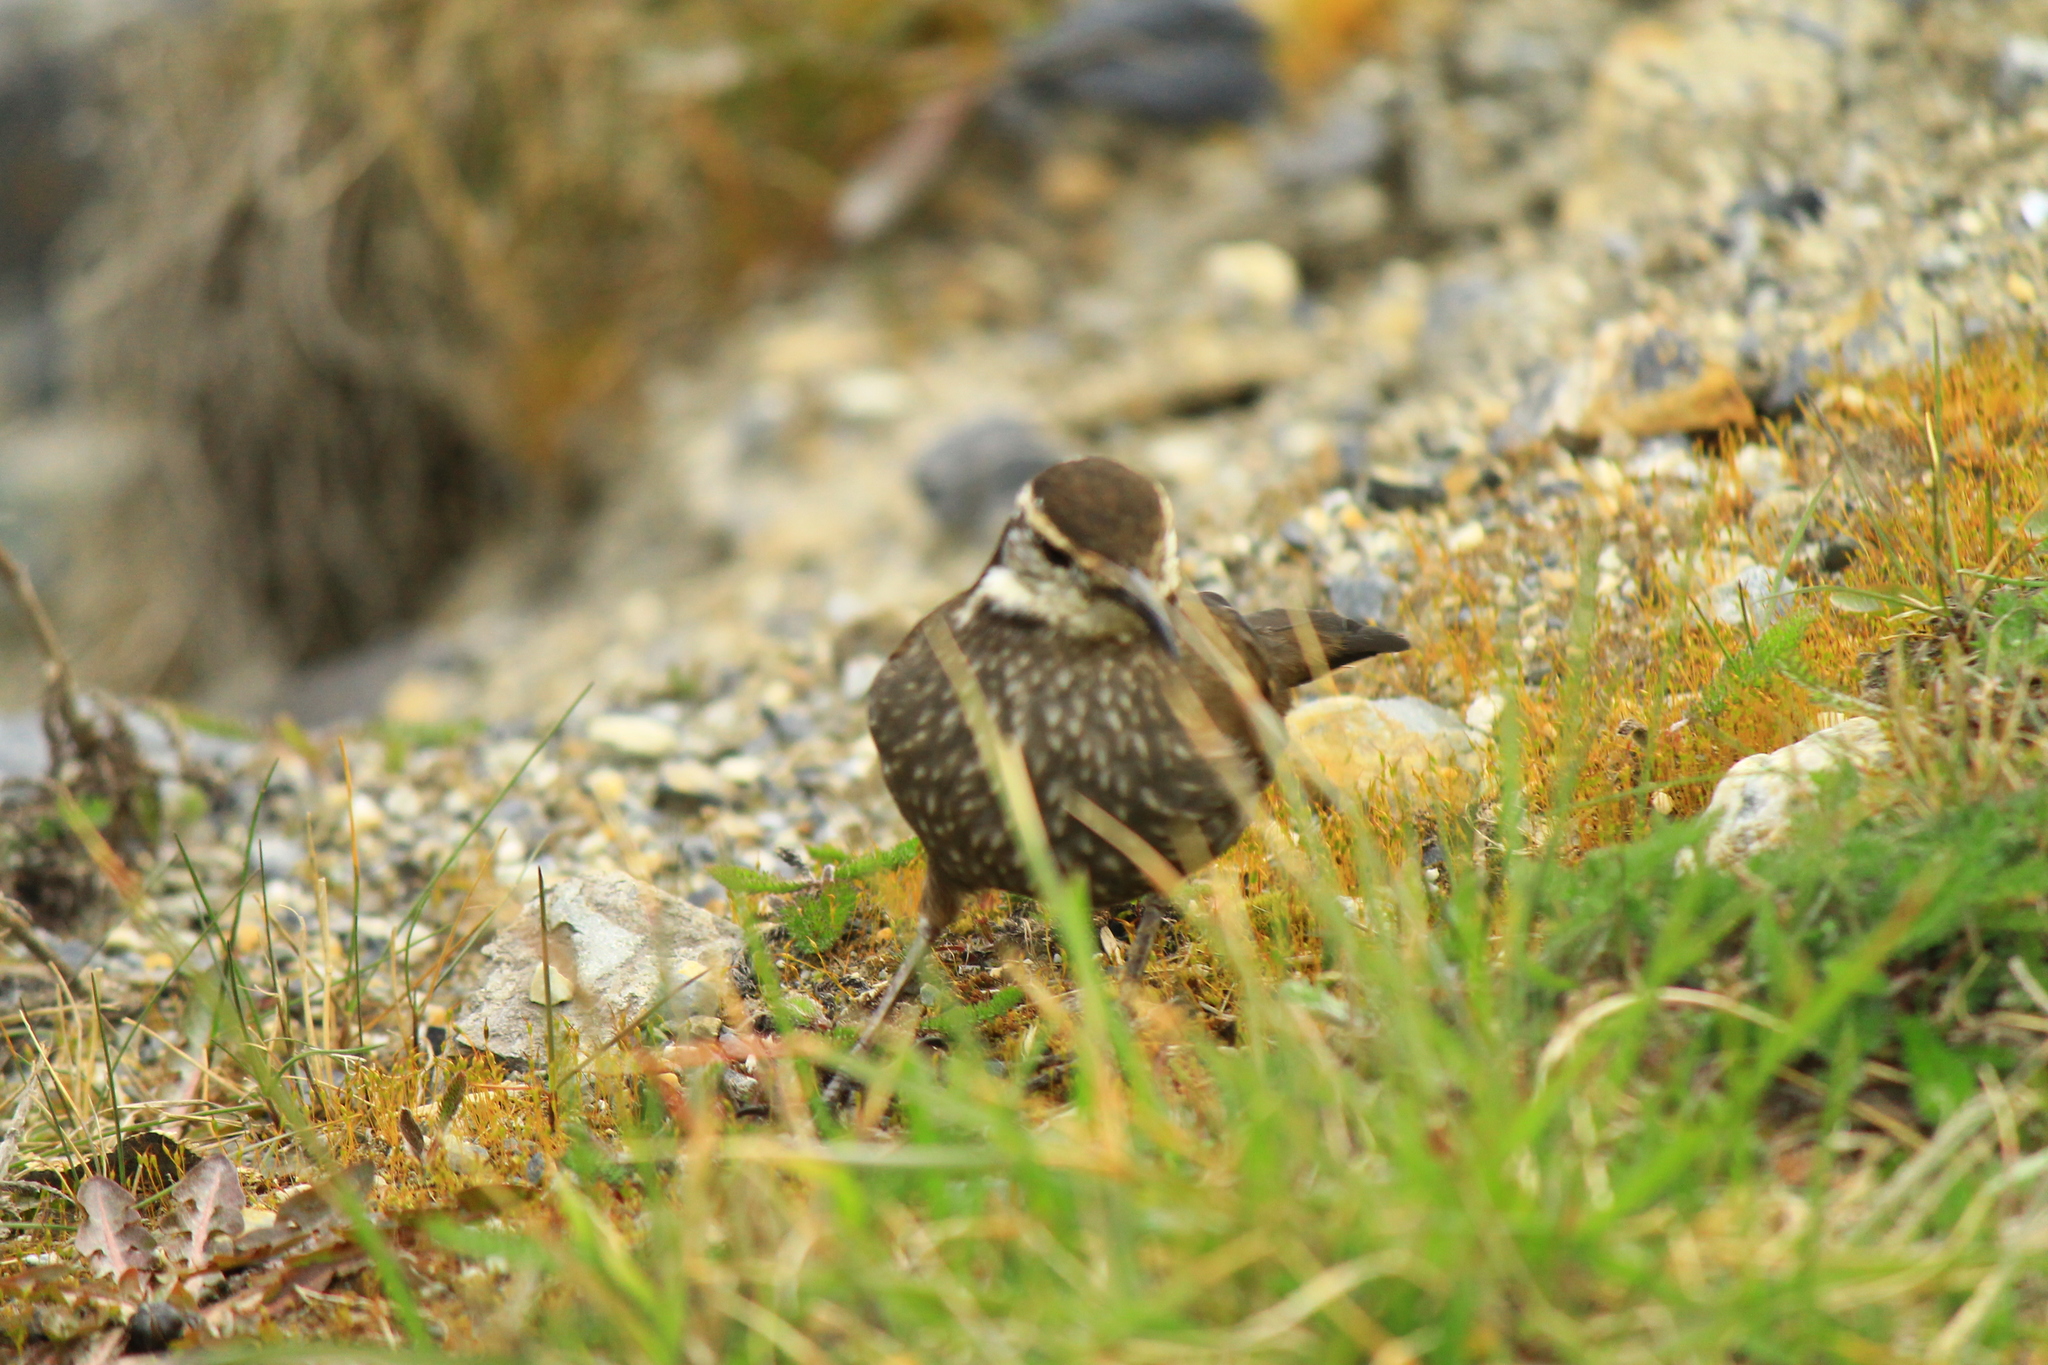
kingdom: Animalia
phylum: Chordata
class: Aves
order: Passeriformes
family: Furnariidae
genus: Cinclodes
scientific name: Cinclodes patagonicus
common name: Dark-bellied cinclodes
